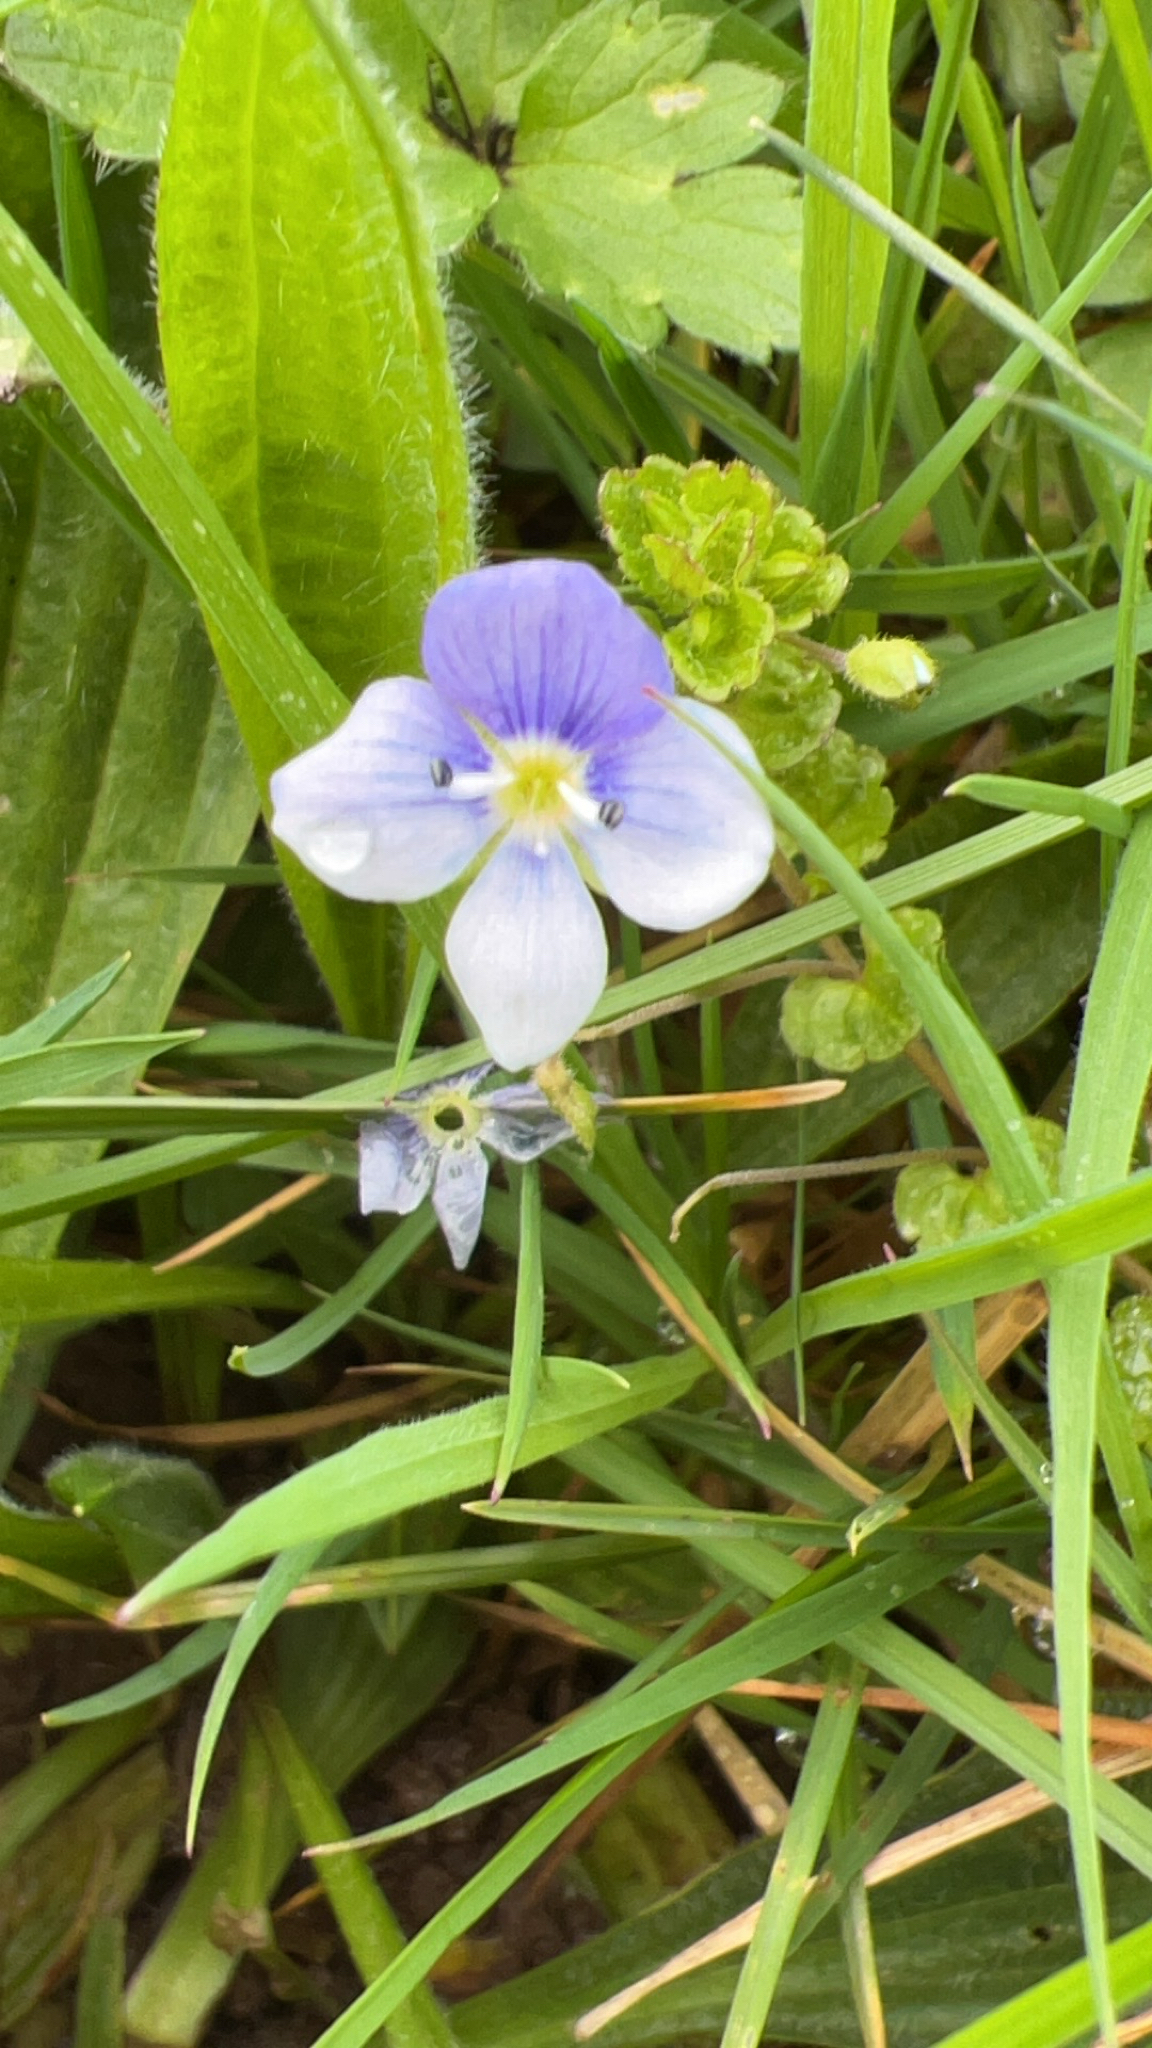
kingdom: Plantae
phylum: Tracheophyta
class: Magnoliopsida
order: Lamiales
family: Plantaginaceae
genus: Veronica
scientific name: Veronica filiformis
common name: Slender speedwell
